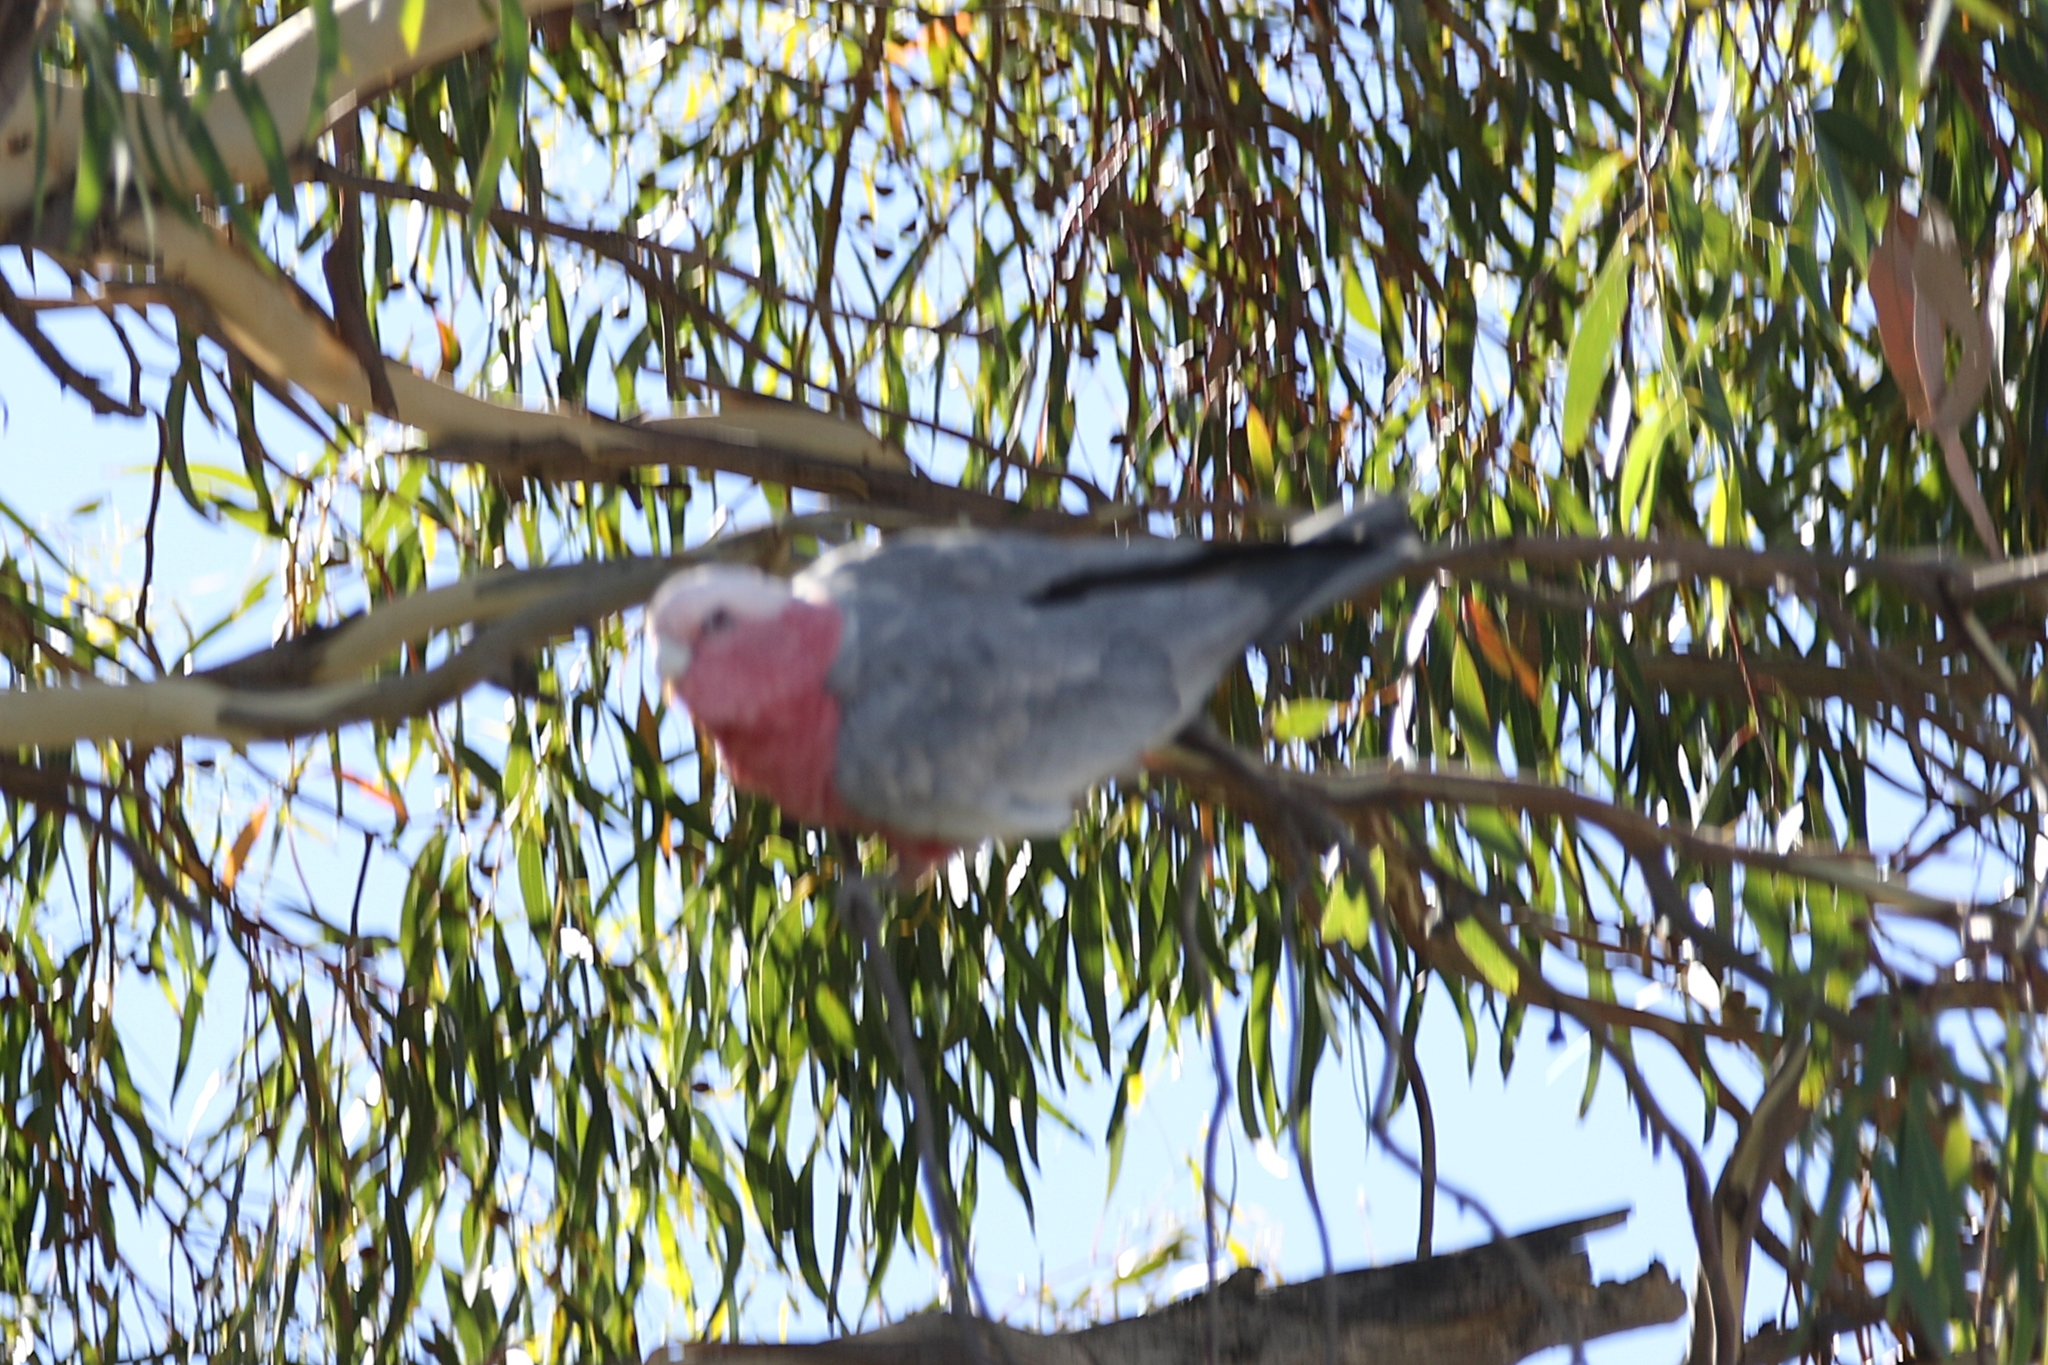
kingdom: Animalia
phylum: Chordata
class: Aves
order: Psittaciformes
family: Psittacidae
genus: Eolophus
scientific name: Eolophus roseicapilla
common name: Galah
